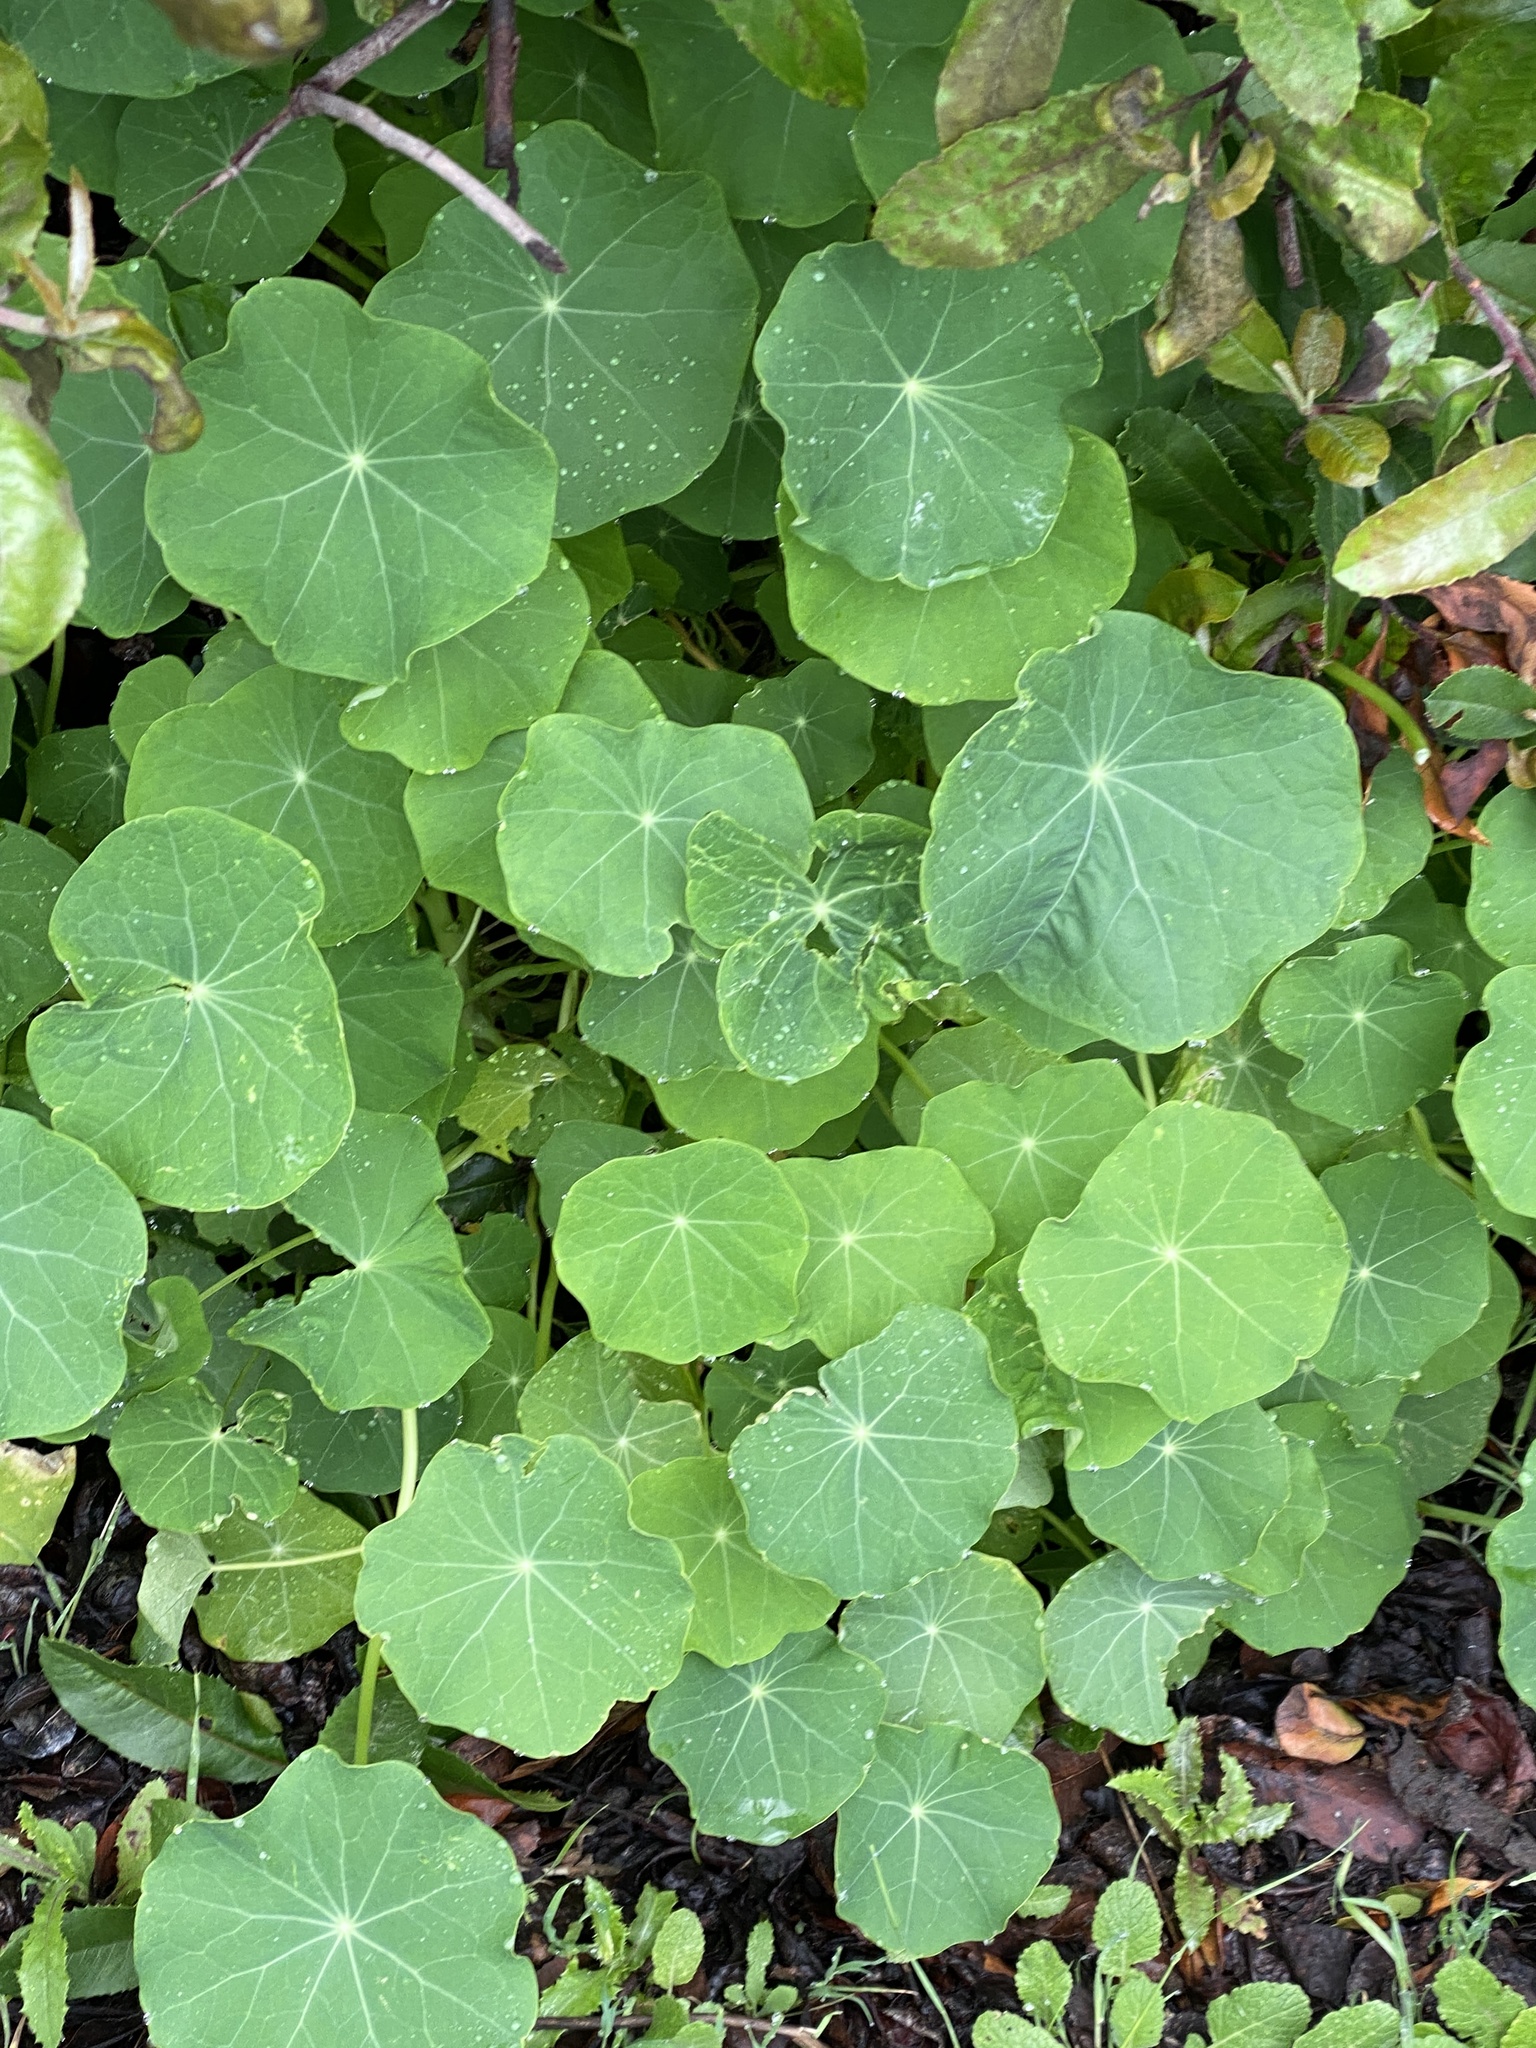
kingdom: Plantae
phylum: Tracheophyta
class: Magnoliopsida
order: Brassicales
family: Tropaeolaceae
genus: Tropaeolum
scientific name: Tropaeolum majus
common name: Nasturtium
